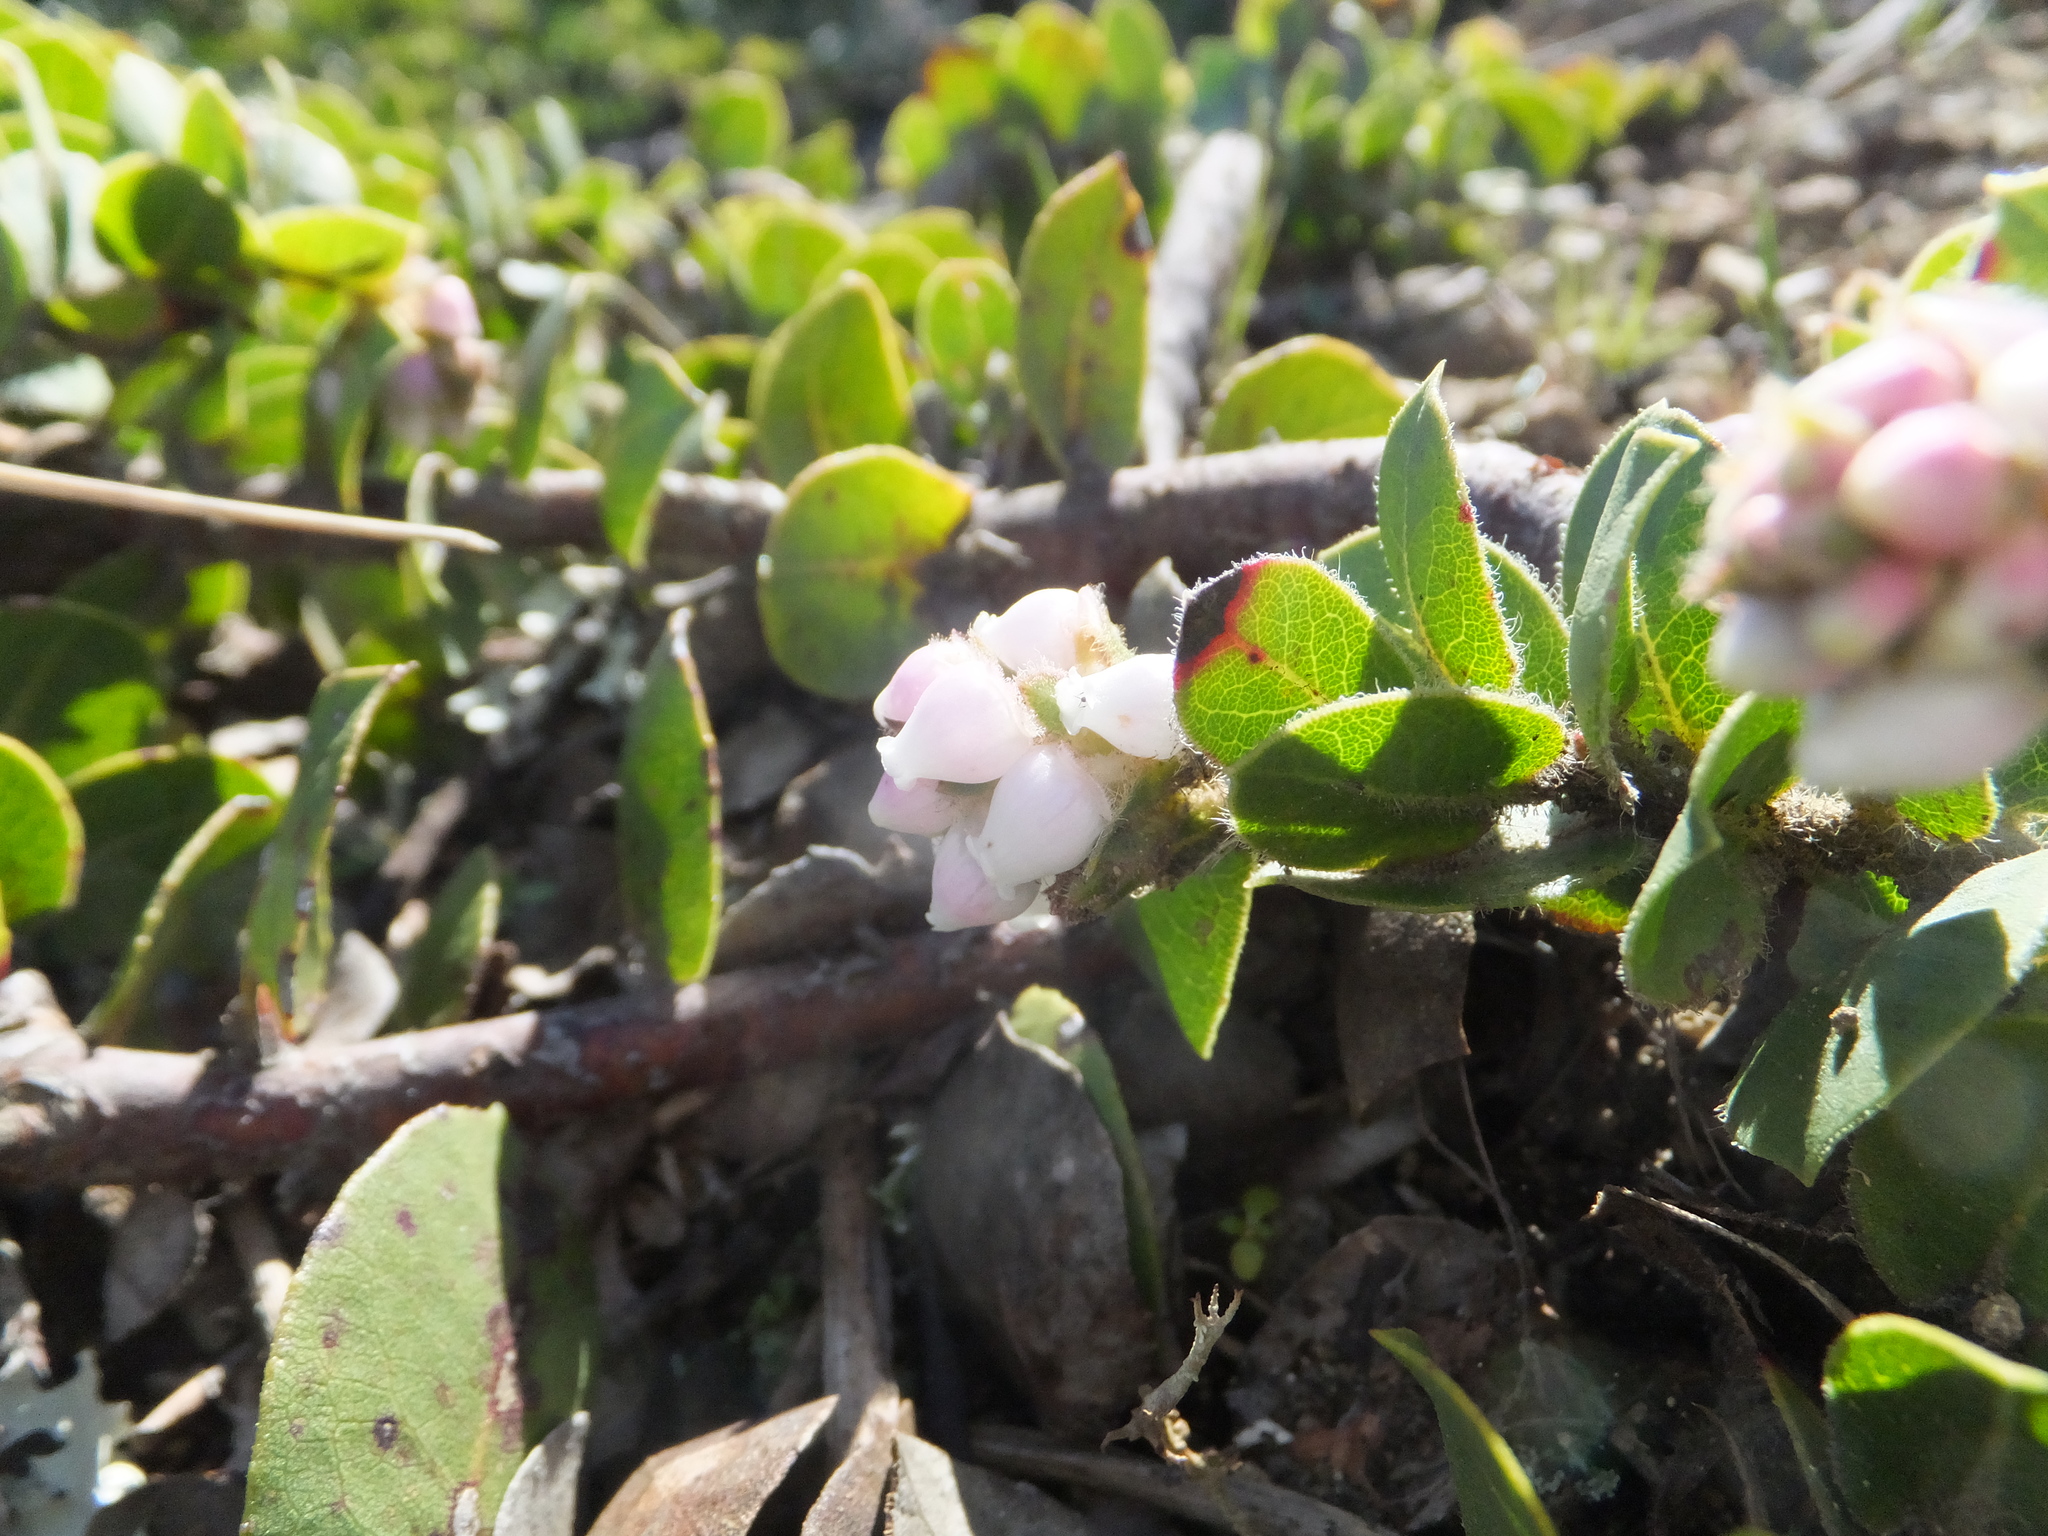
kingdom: Plantae
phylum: Tracheophyta
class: Magnoliopsida
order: Ericales
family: Ericaceae
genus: Arctostaphylos
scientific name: Arctostaphylos imbricata
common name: San bruno mountain manzanita
